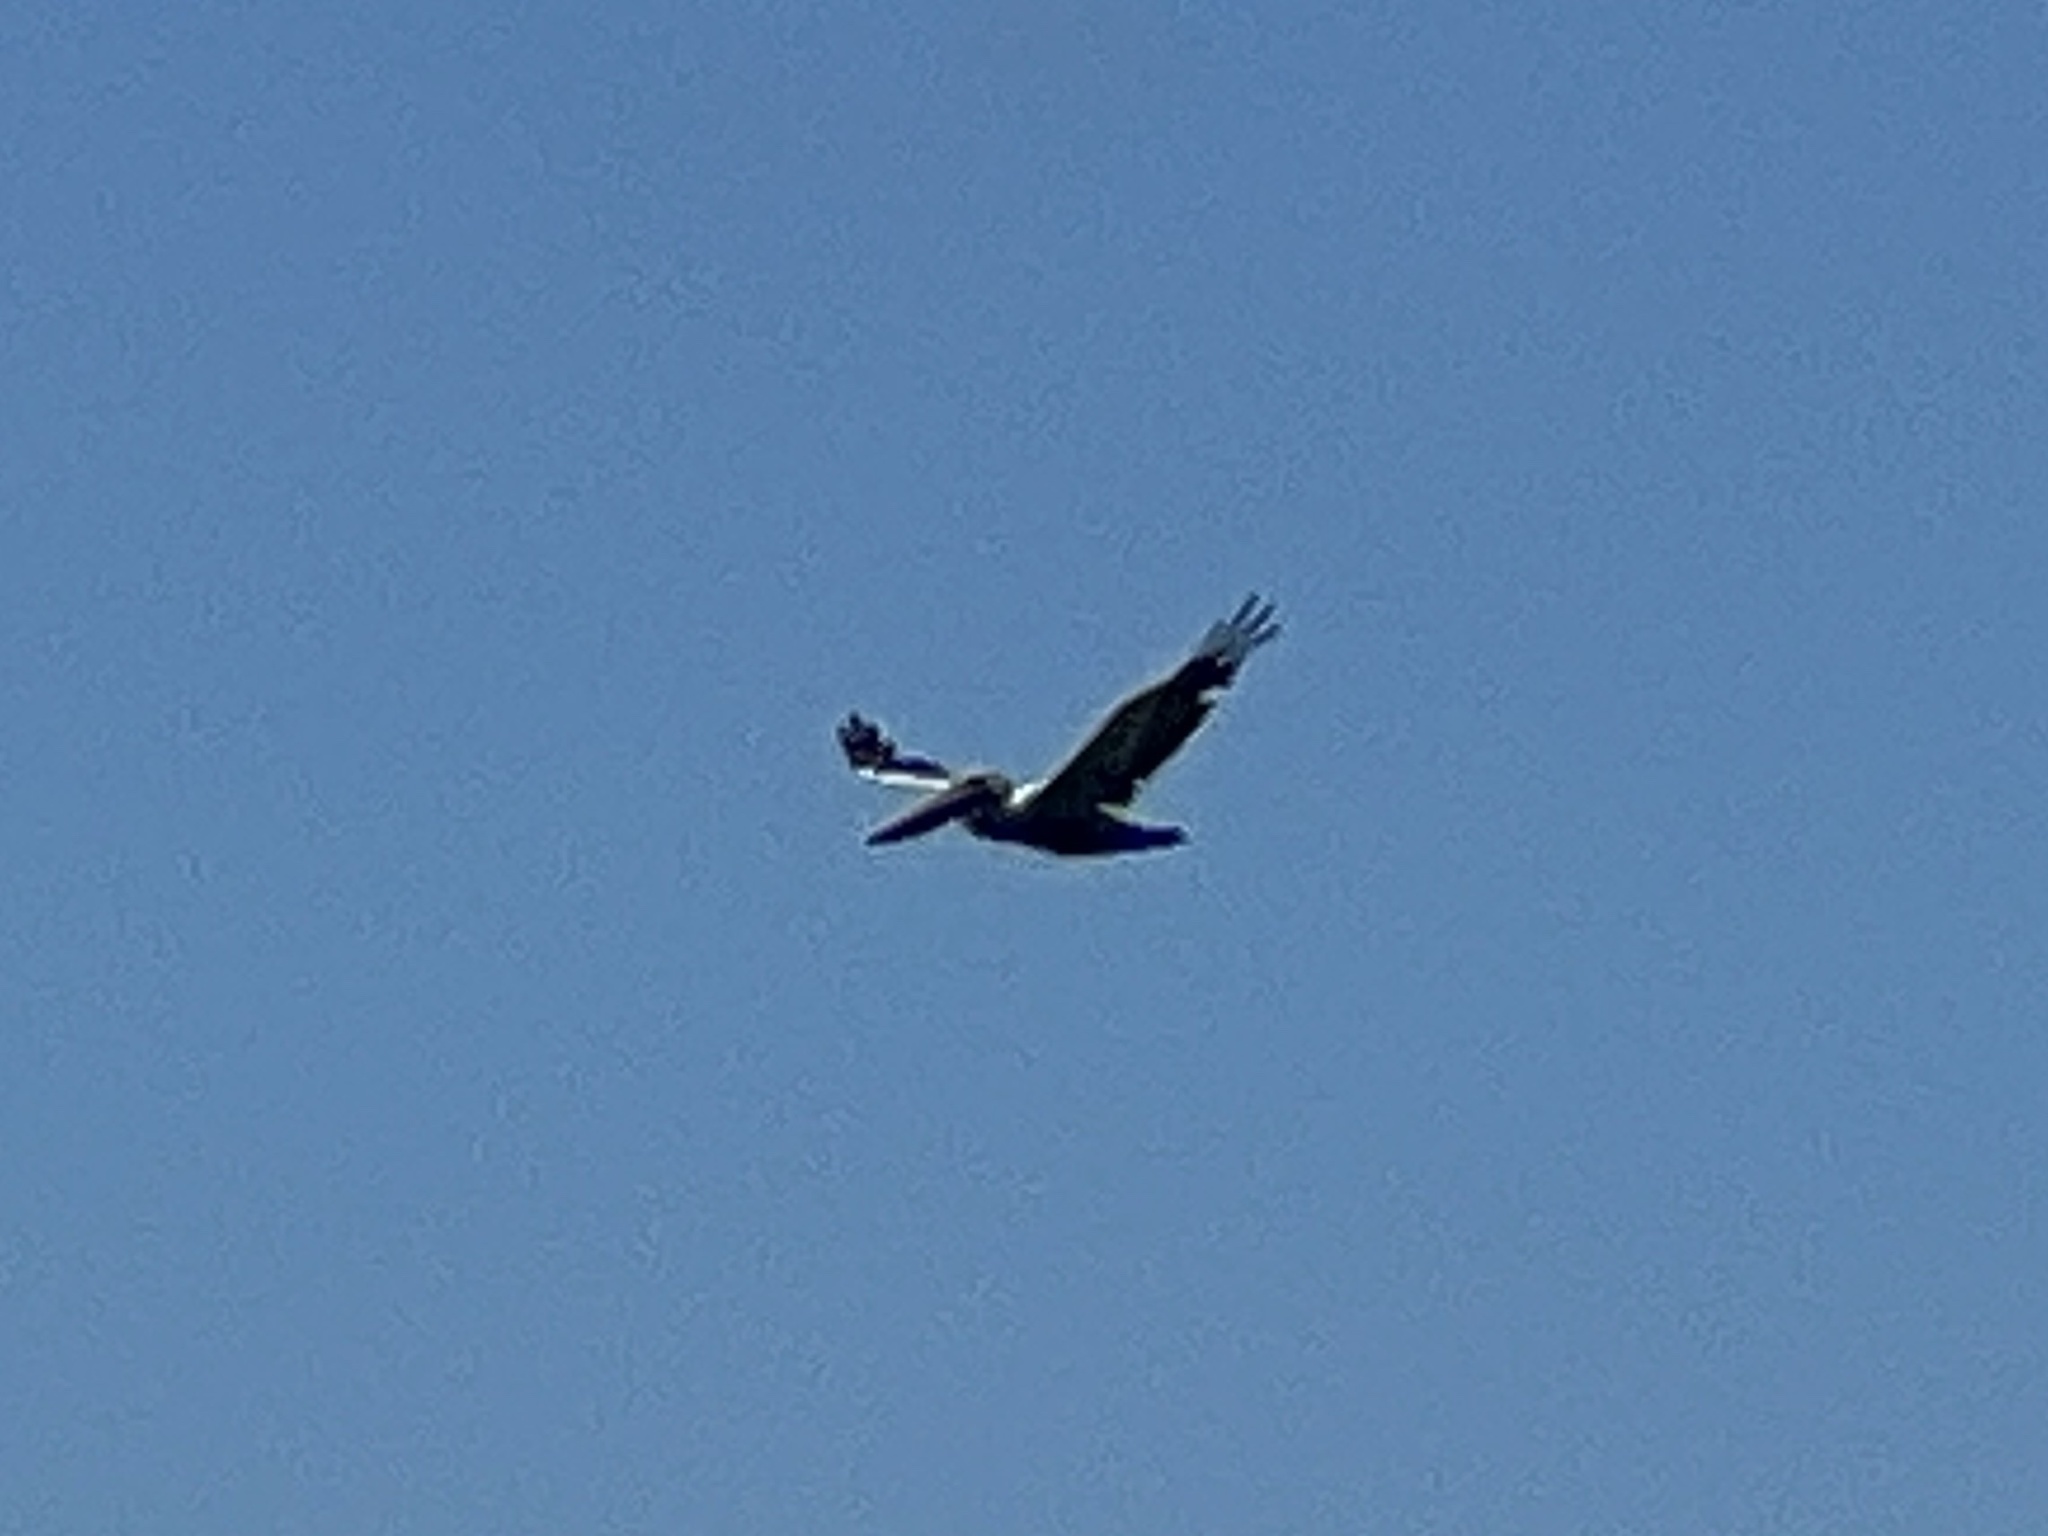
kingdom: Animalia
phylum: Chordata
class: Aves
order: Pelecaniformes
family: Pelecanidae
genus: Pelecanus
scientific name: Pelecanus occidentalis
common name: Brown pelican
